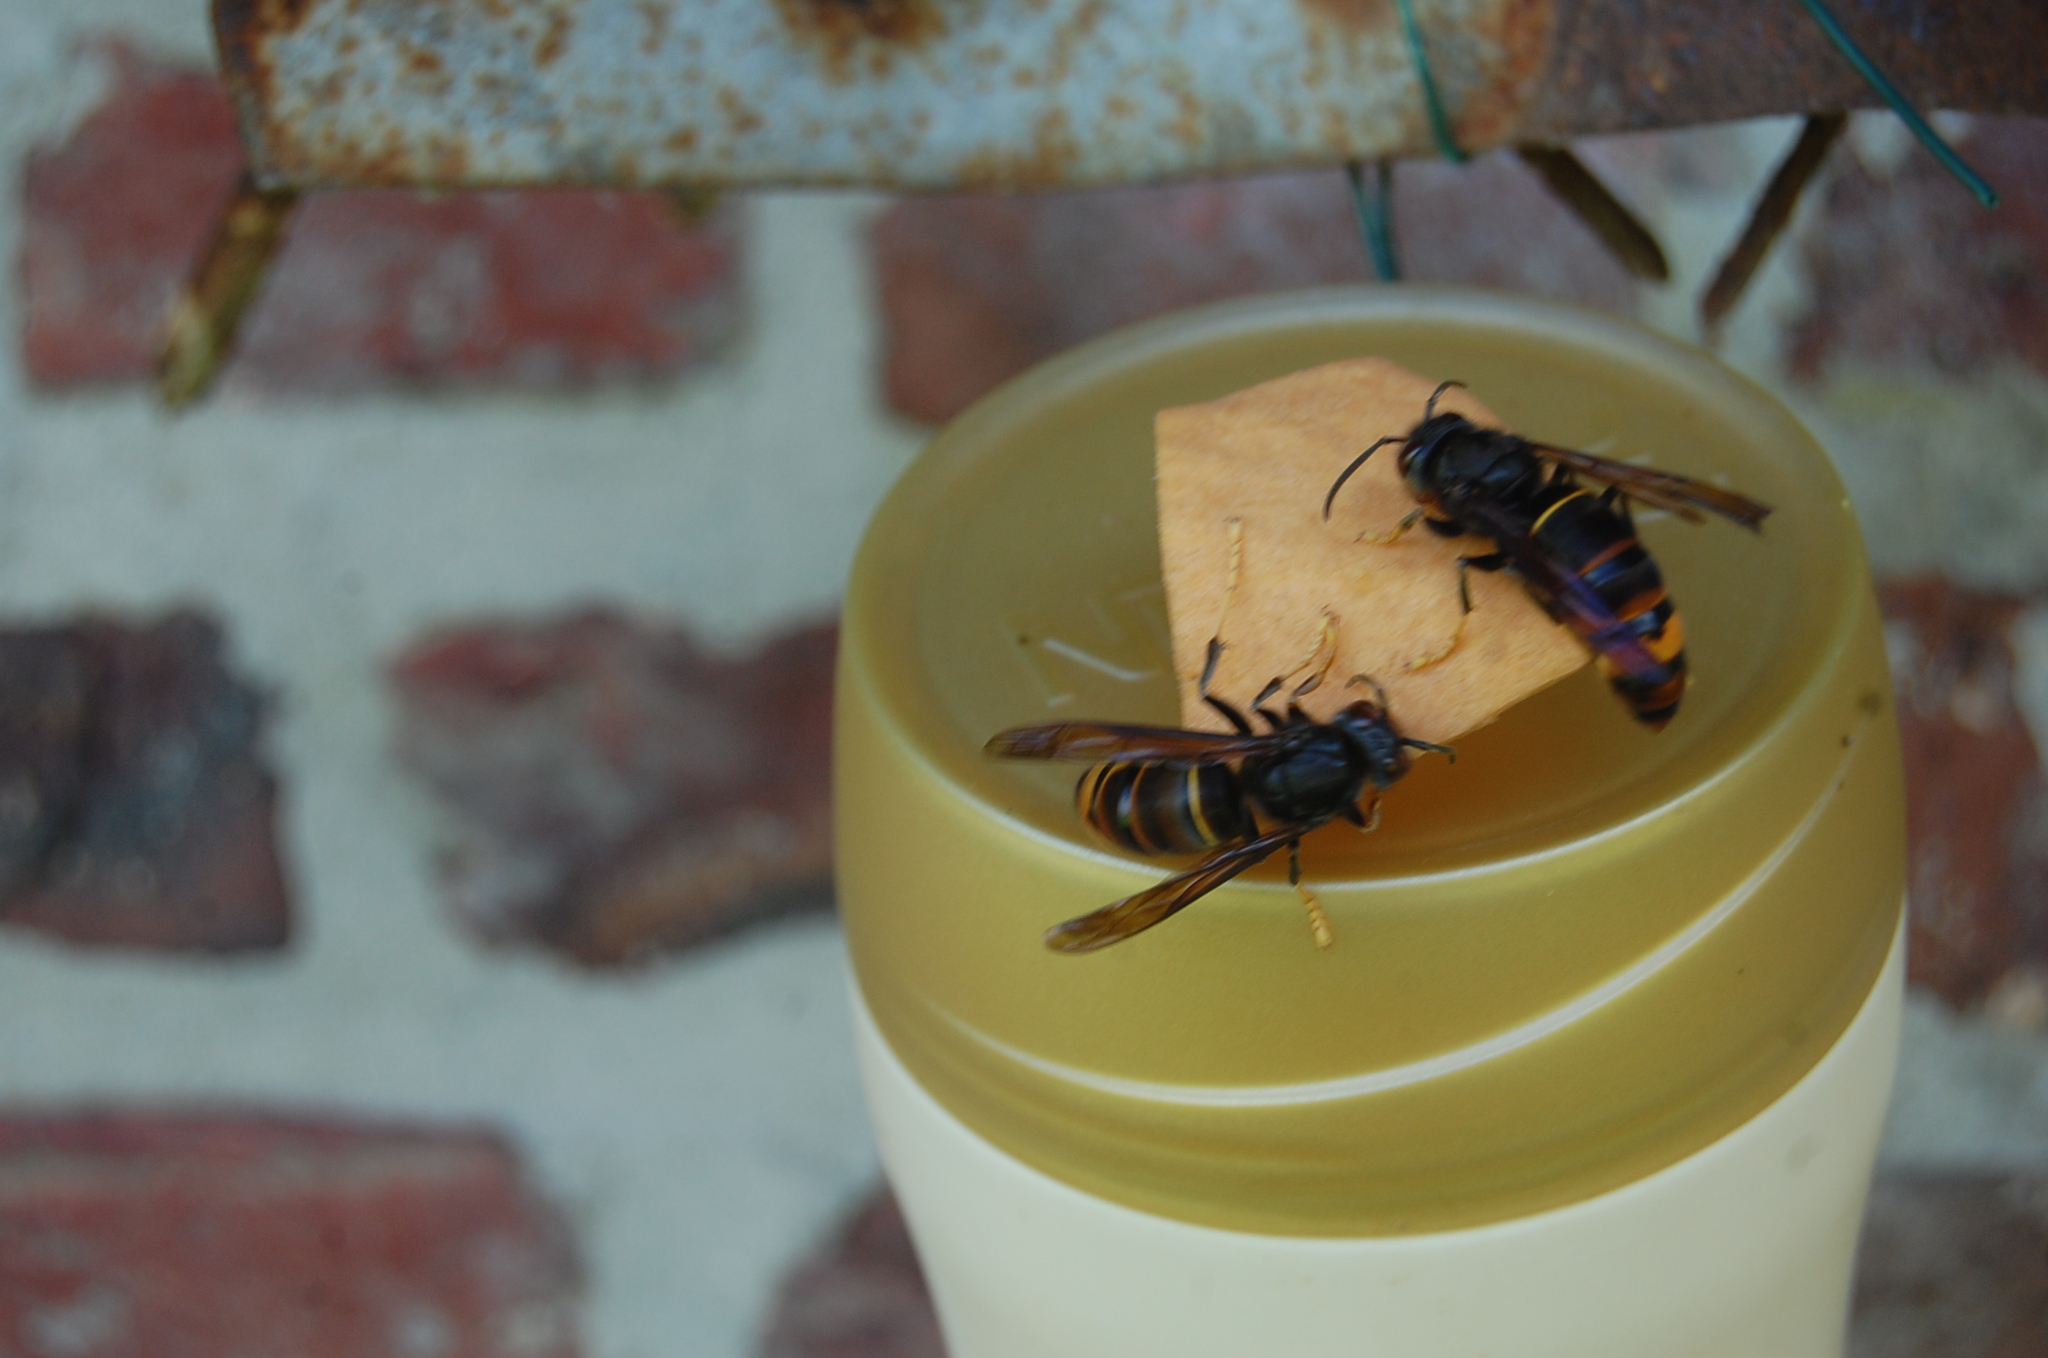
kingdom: Animalia
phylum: Arthropoda
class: Insecta
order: Hymenoptera
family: Vespidae
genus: Vespa
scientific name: Vespa velutina
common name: Asian hornet
